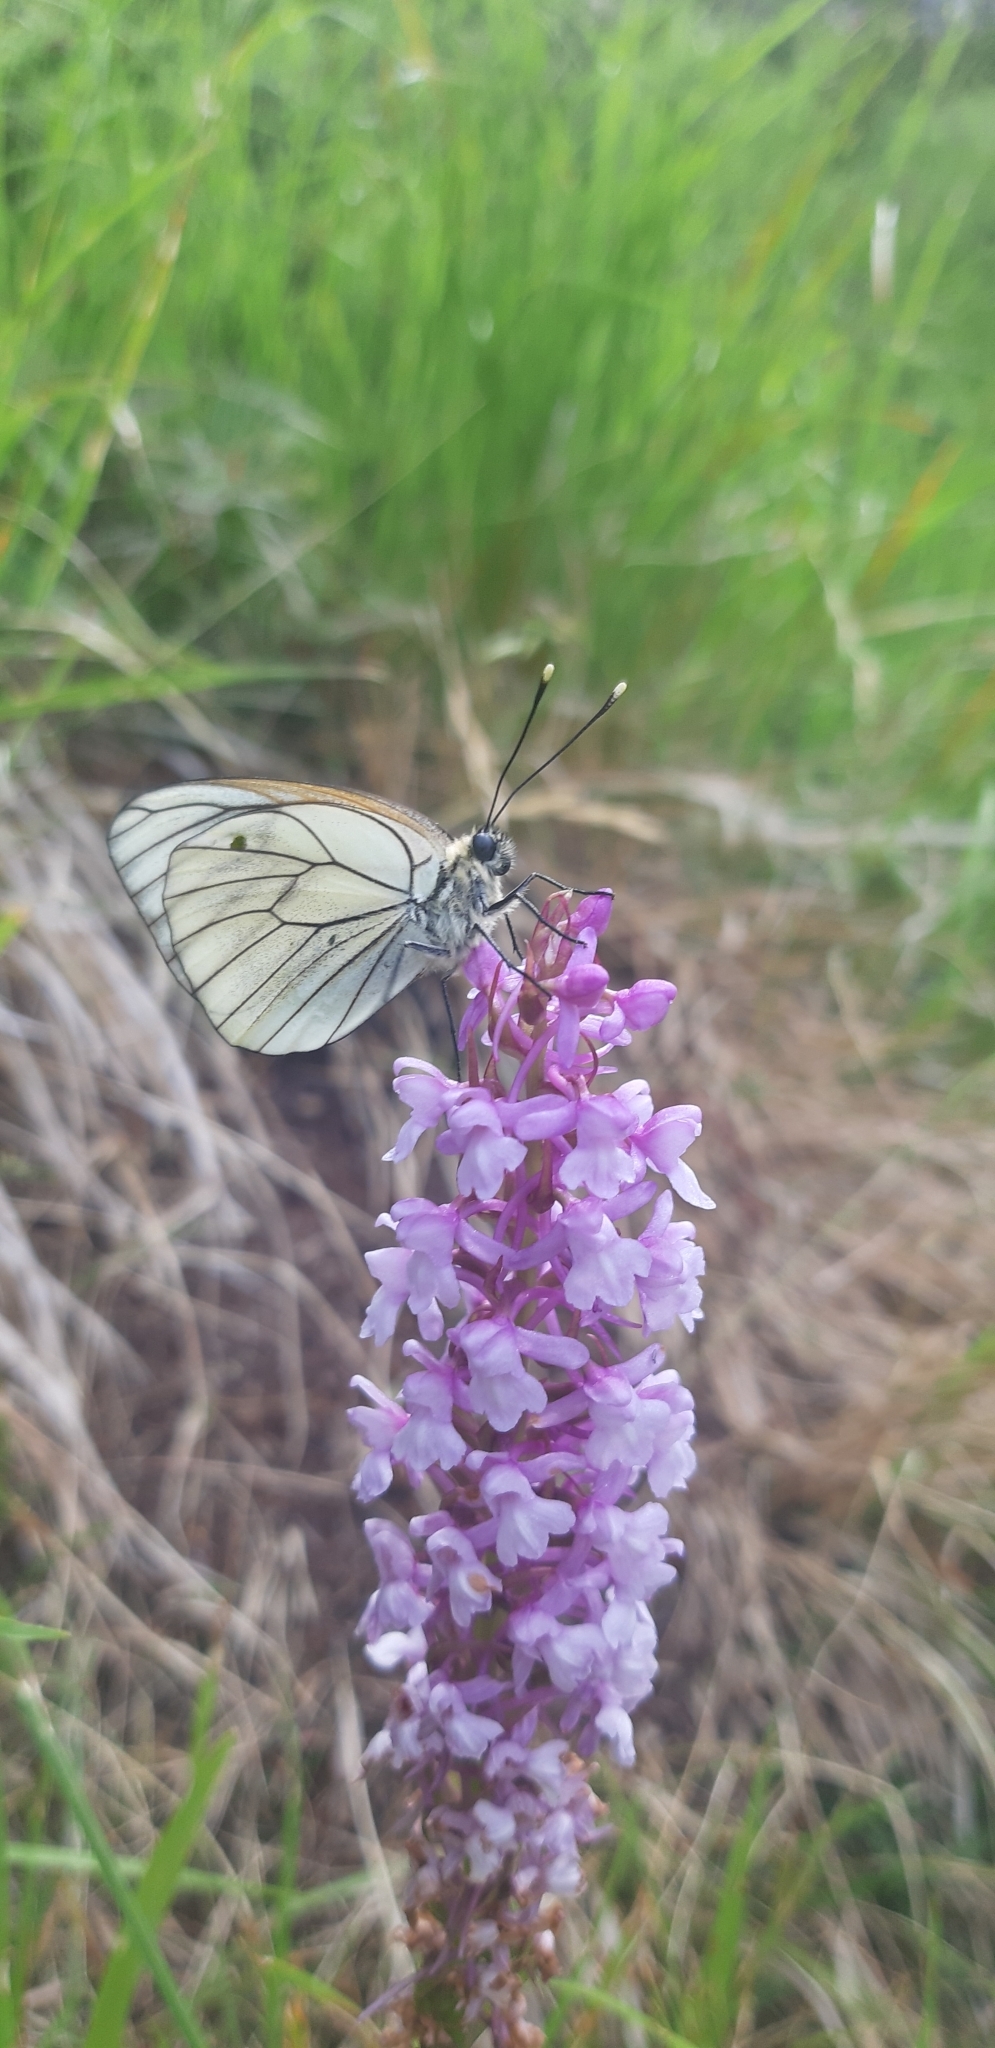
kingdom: Animalia
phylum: Arthropoda
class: Insecta
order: Lepidoptera
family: Pieridae
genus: Aporia
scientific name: Aporia crataegi
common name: Black-veined white
